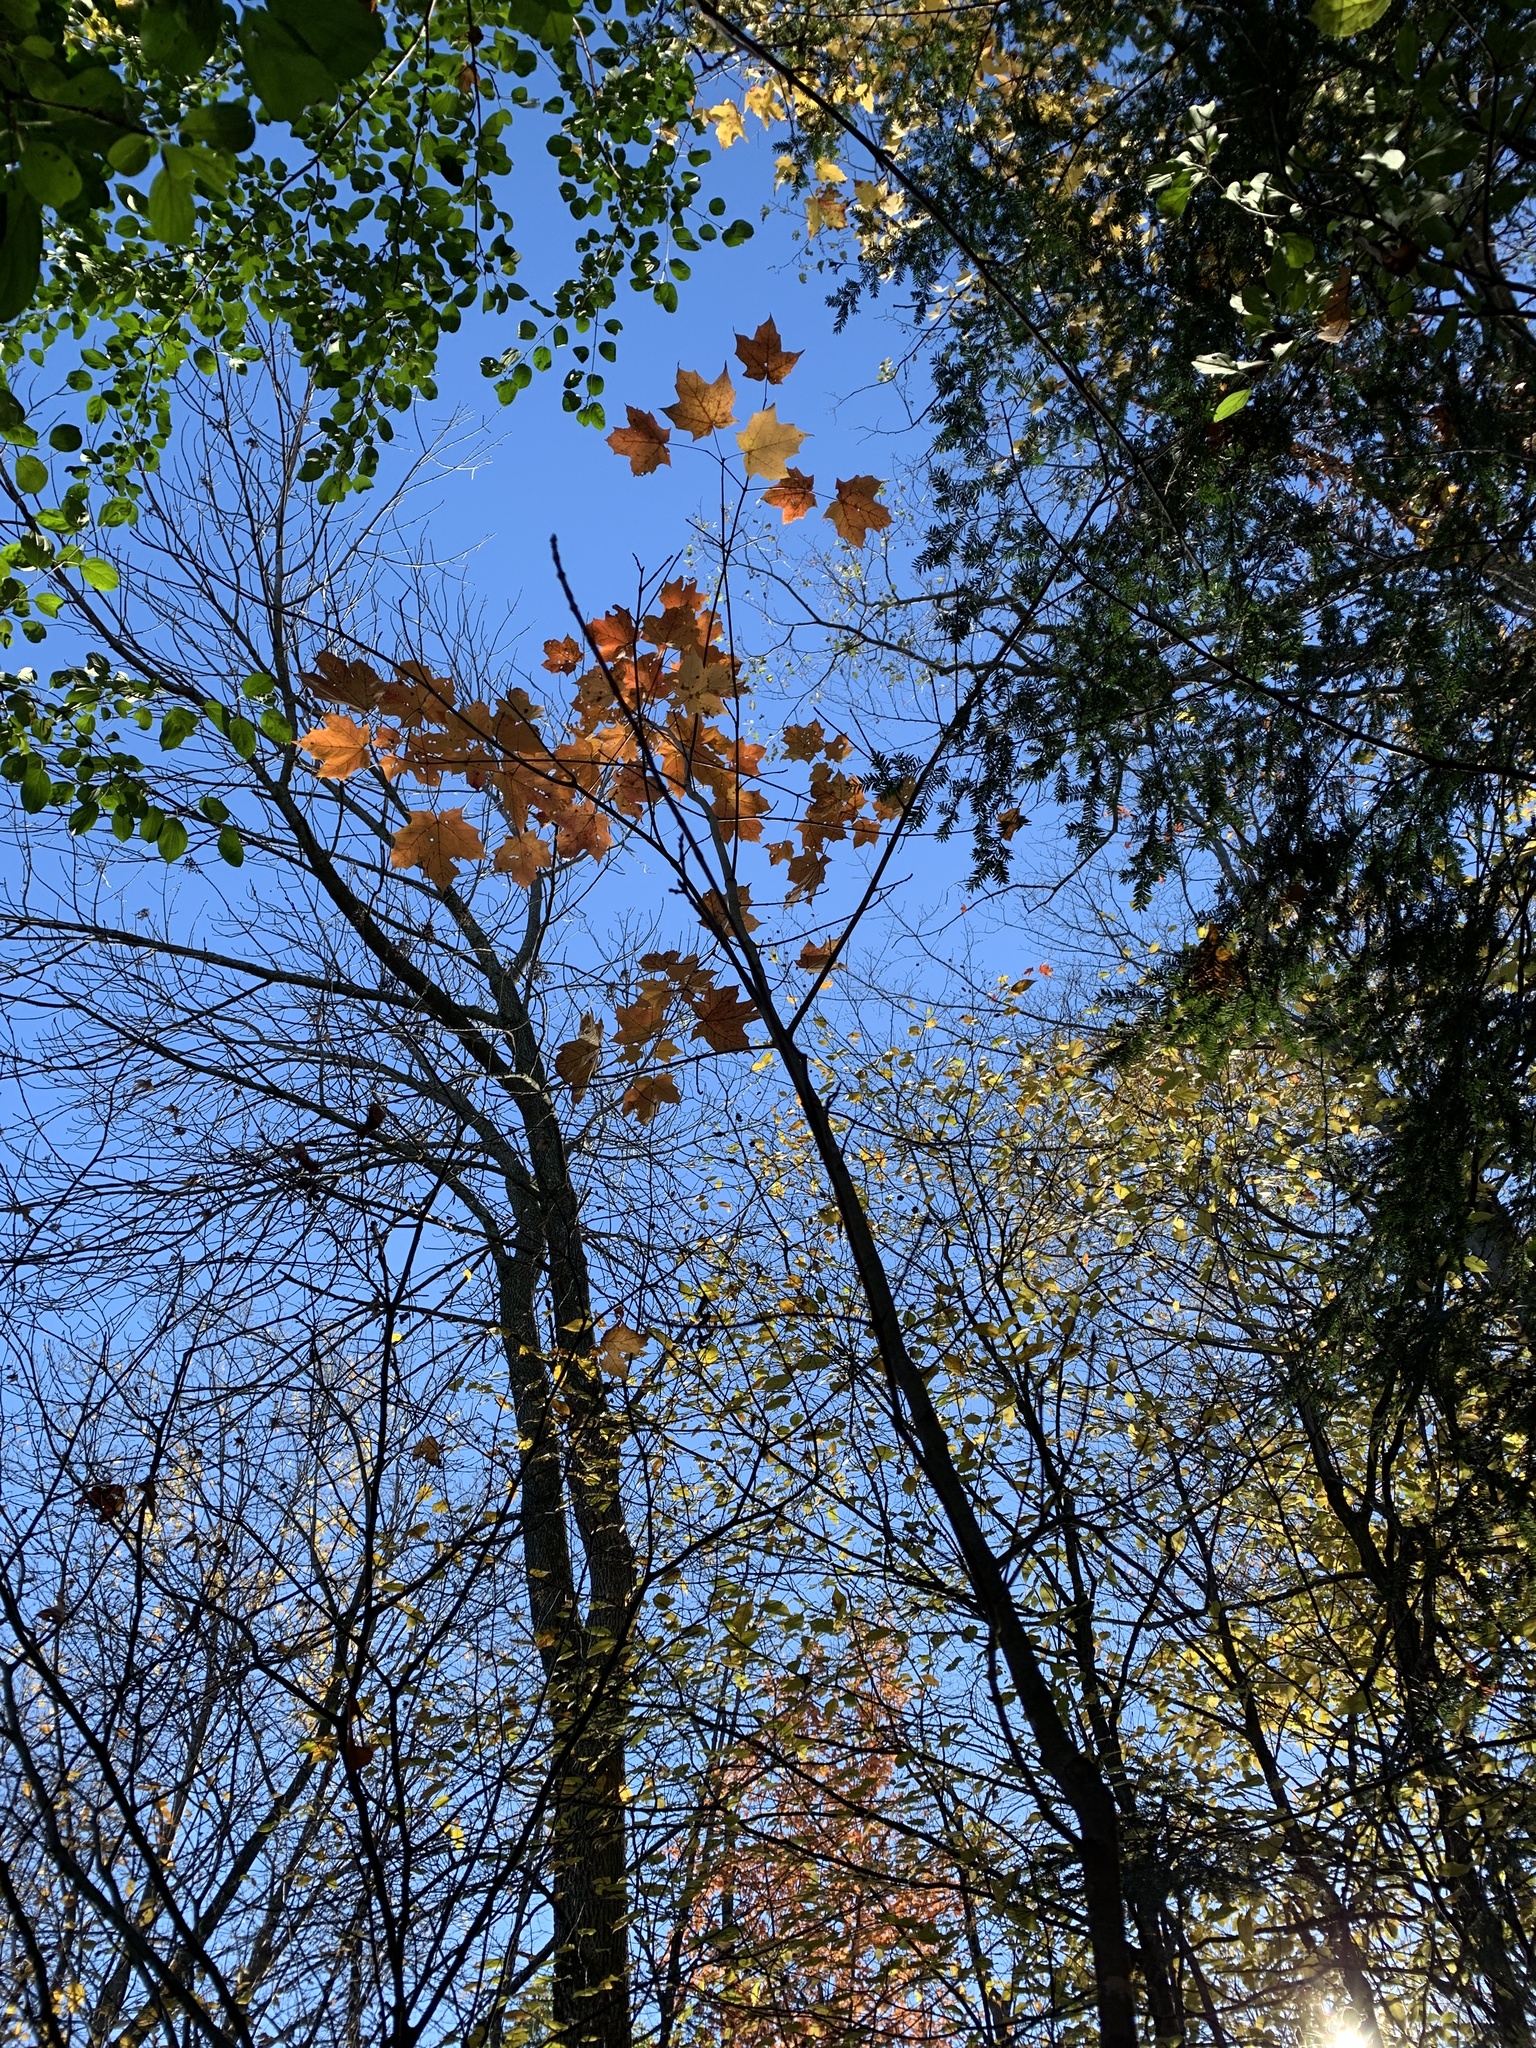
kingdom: Plantae
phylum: Tracheophyta
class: Magnoliopsida
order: Sapindales
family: Sapindaceae
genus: Acer
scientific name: Acer saccharum
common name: Sugar maple
